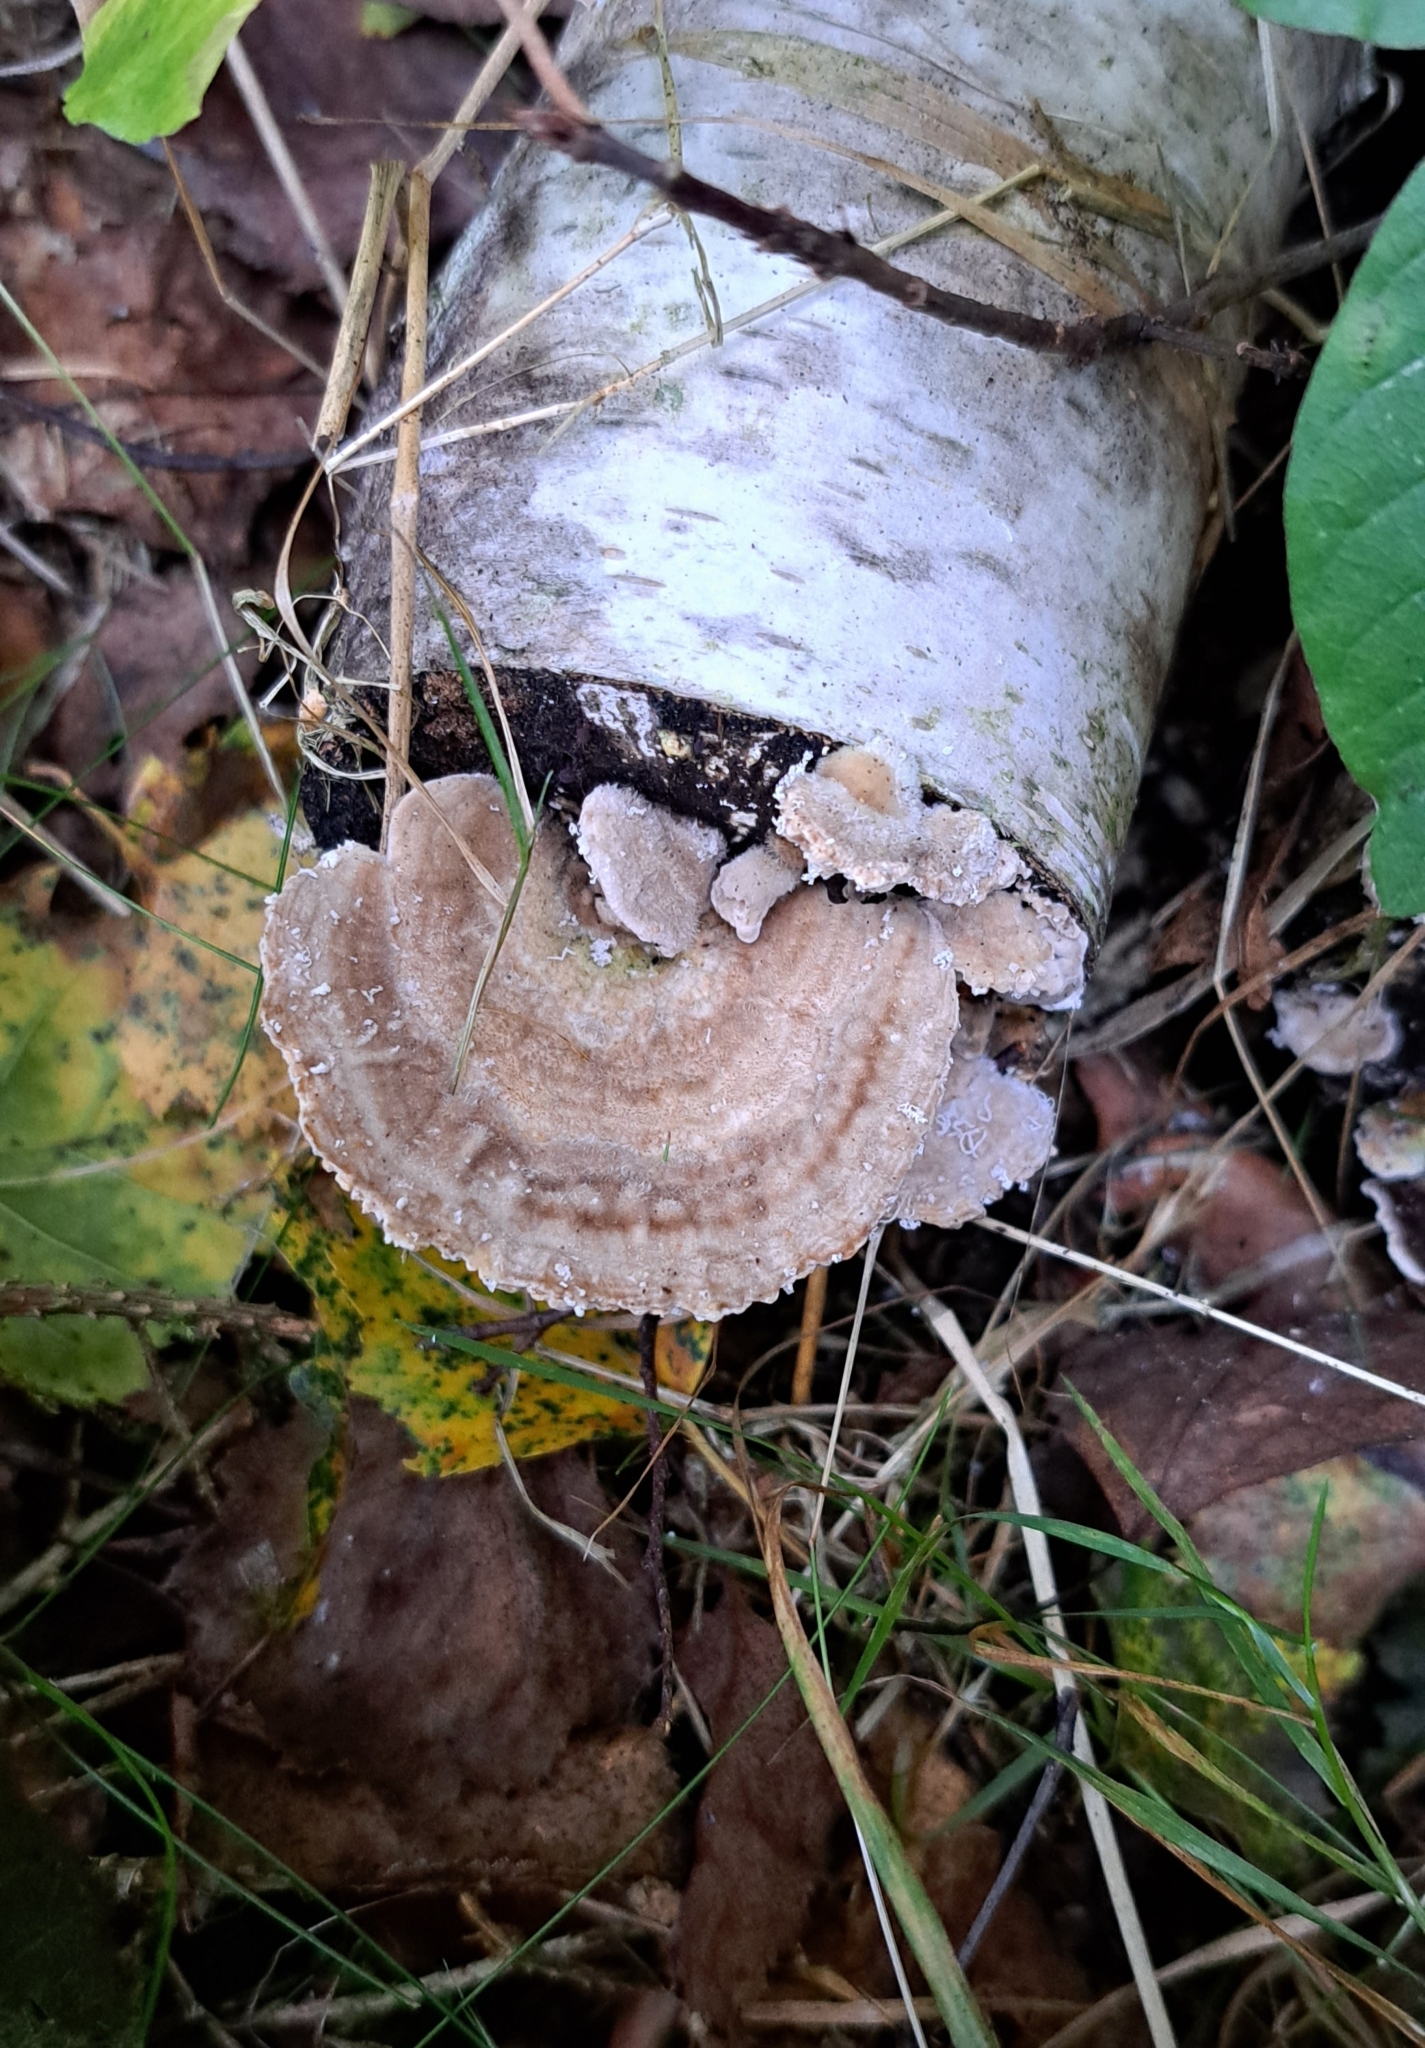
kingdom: Fungi
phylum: Basidiomycota
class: Agaricomycetes
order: Polyporales
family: Polyporaceae
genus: Lenzites
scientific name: Lenzites betulinus
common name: Birch mazegill
